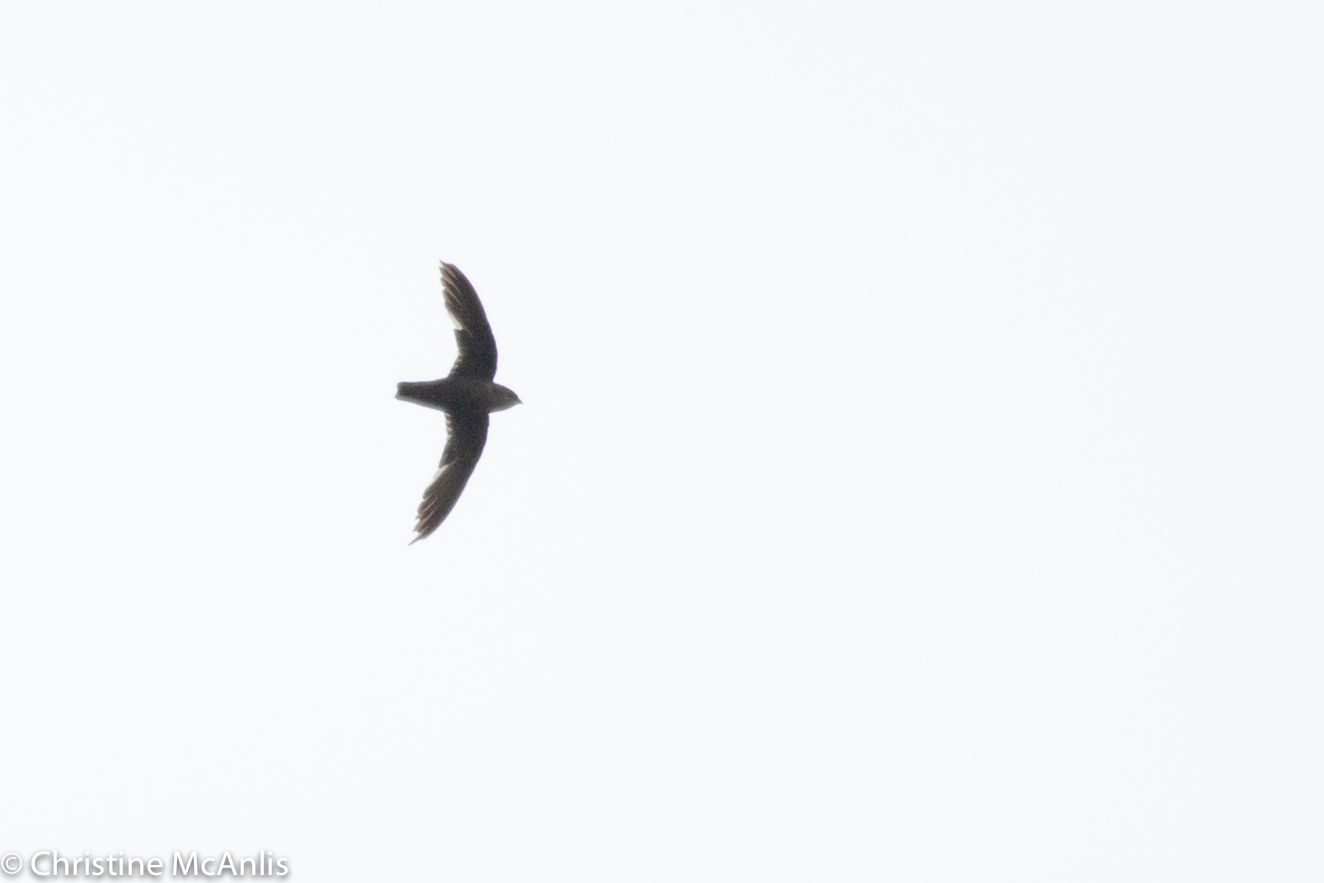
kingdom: Animalia
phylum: Chordata
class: Aves
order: Apodiformes
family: Apodidae
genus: Chaetura
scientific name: Chaetura pelagica
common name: Chimney swift
